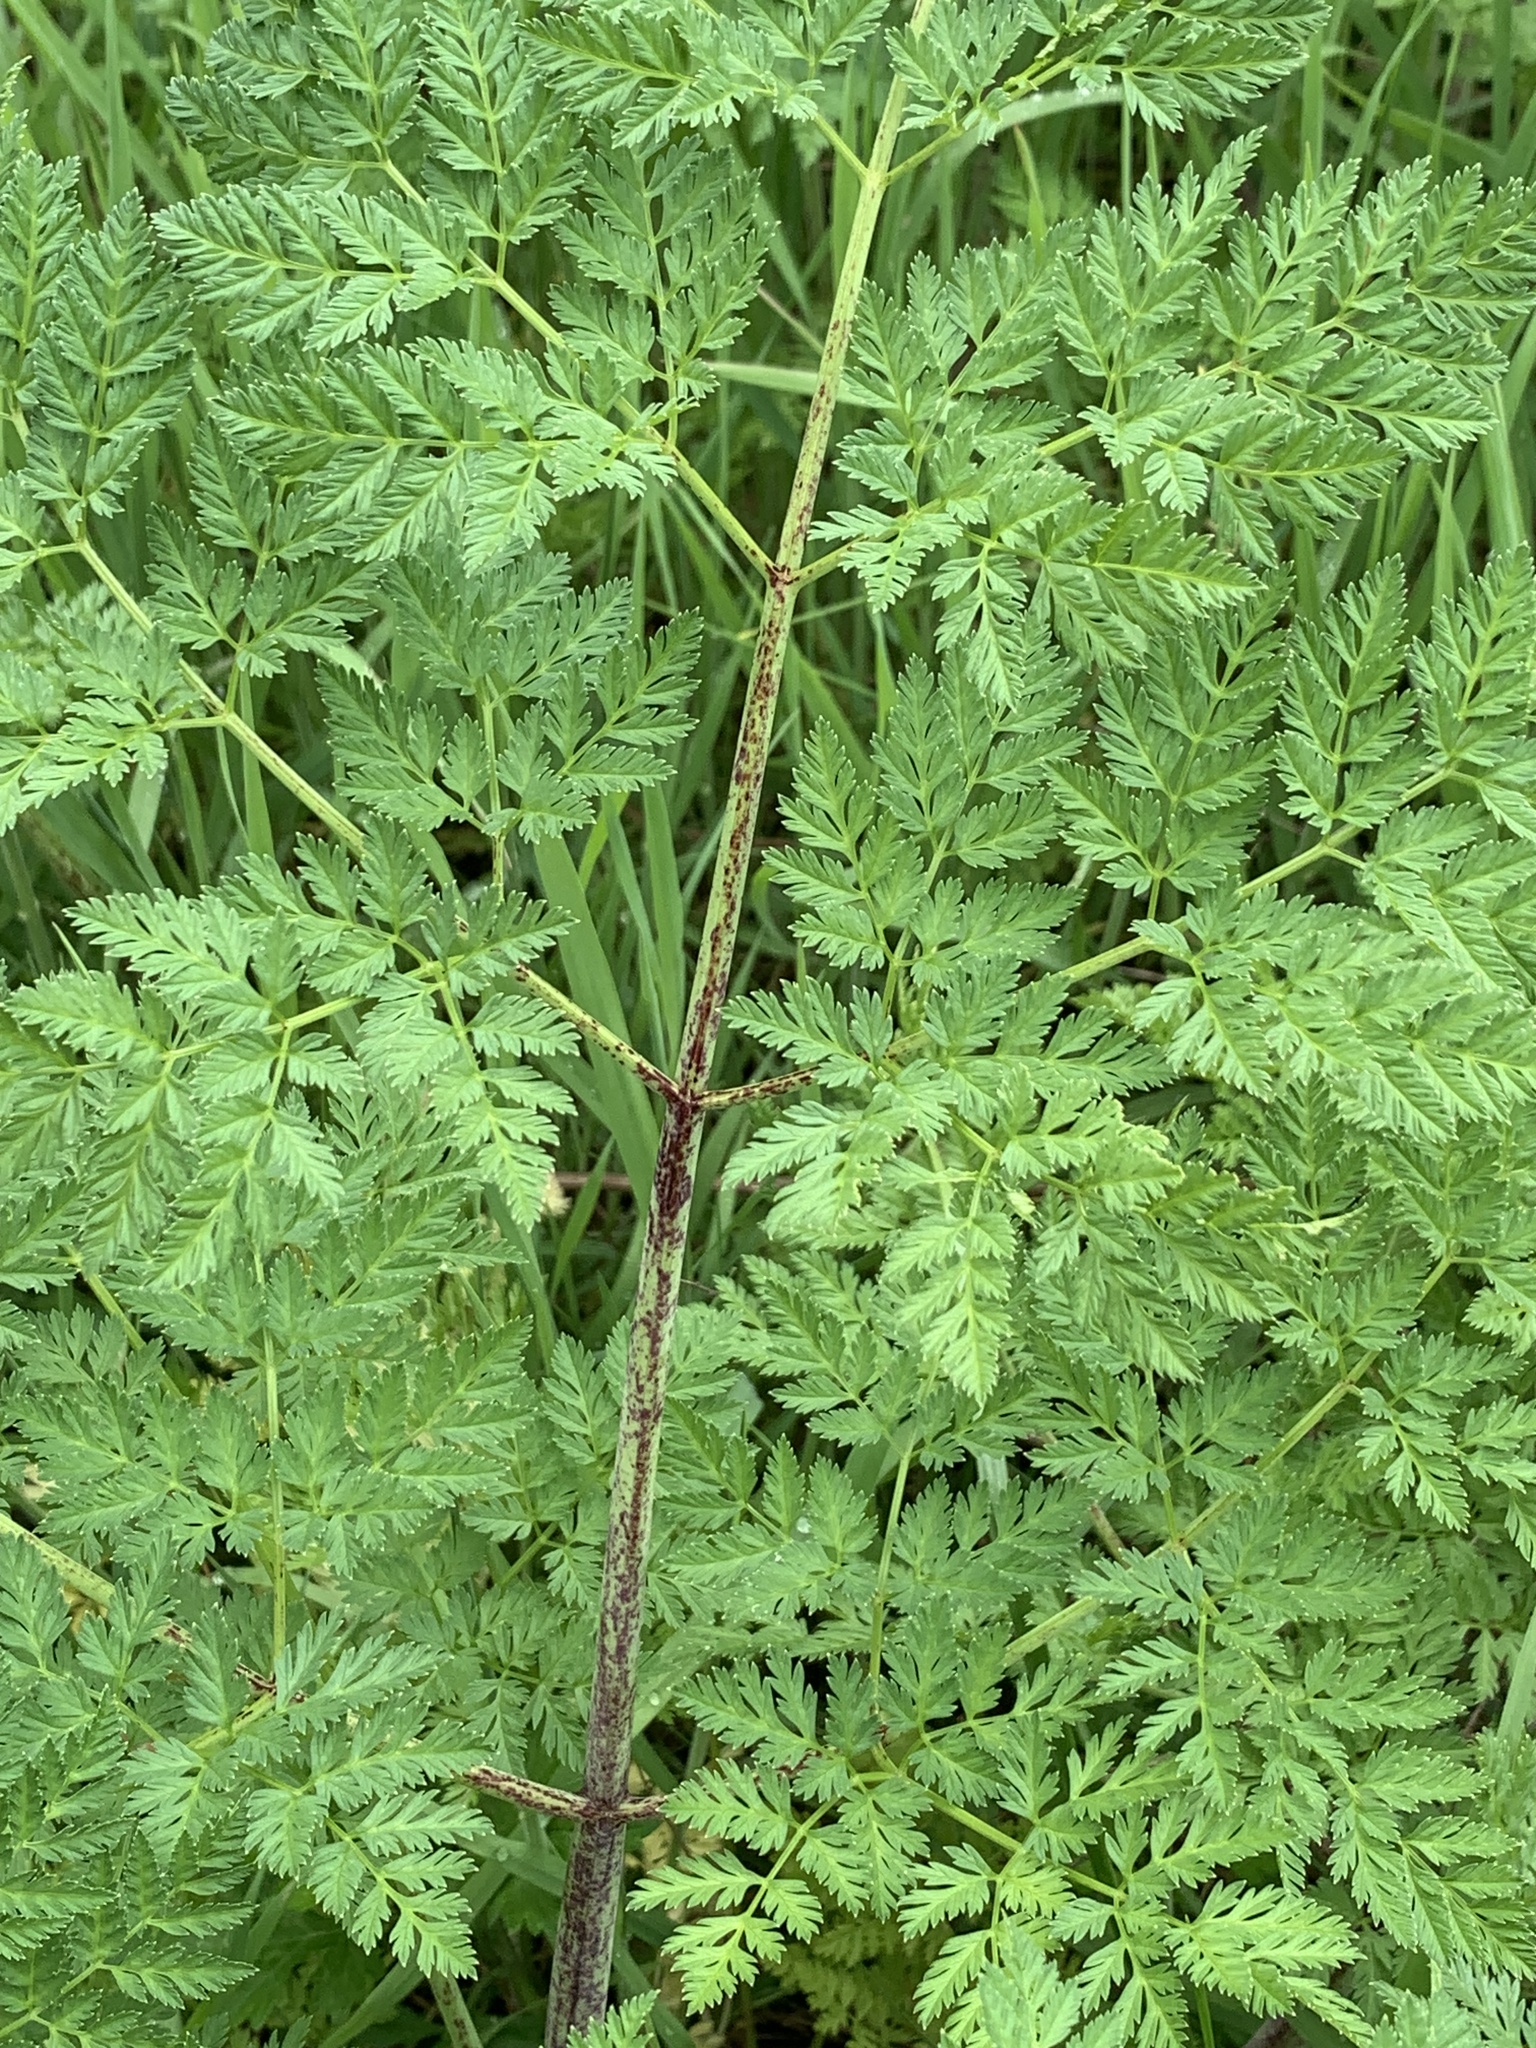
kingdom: Plantae
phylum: Tracheophyta
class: Magnoliopsida
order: Apiales
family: Apiaceae
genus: Conium
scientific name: Conium maculatum
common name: Hemlock
